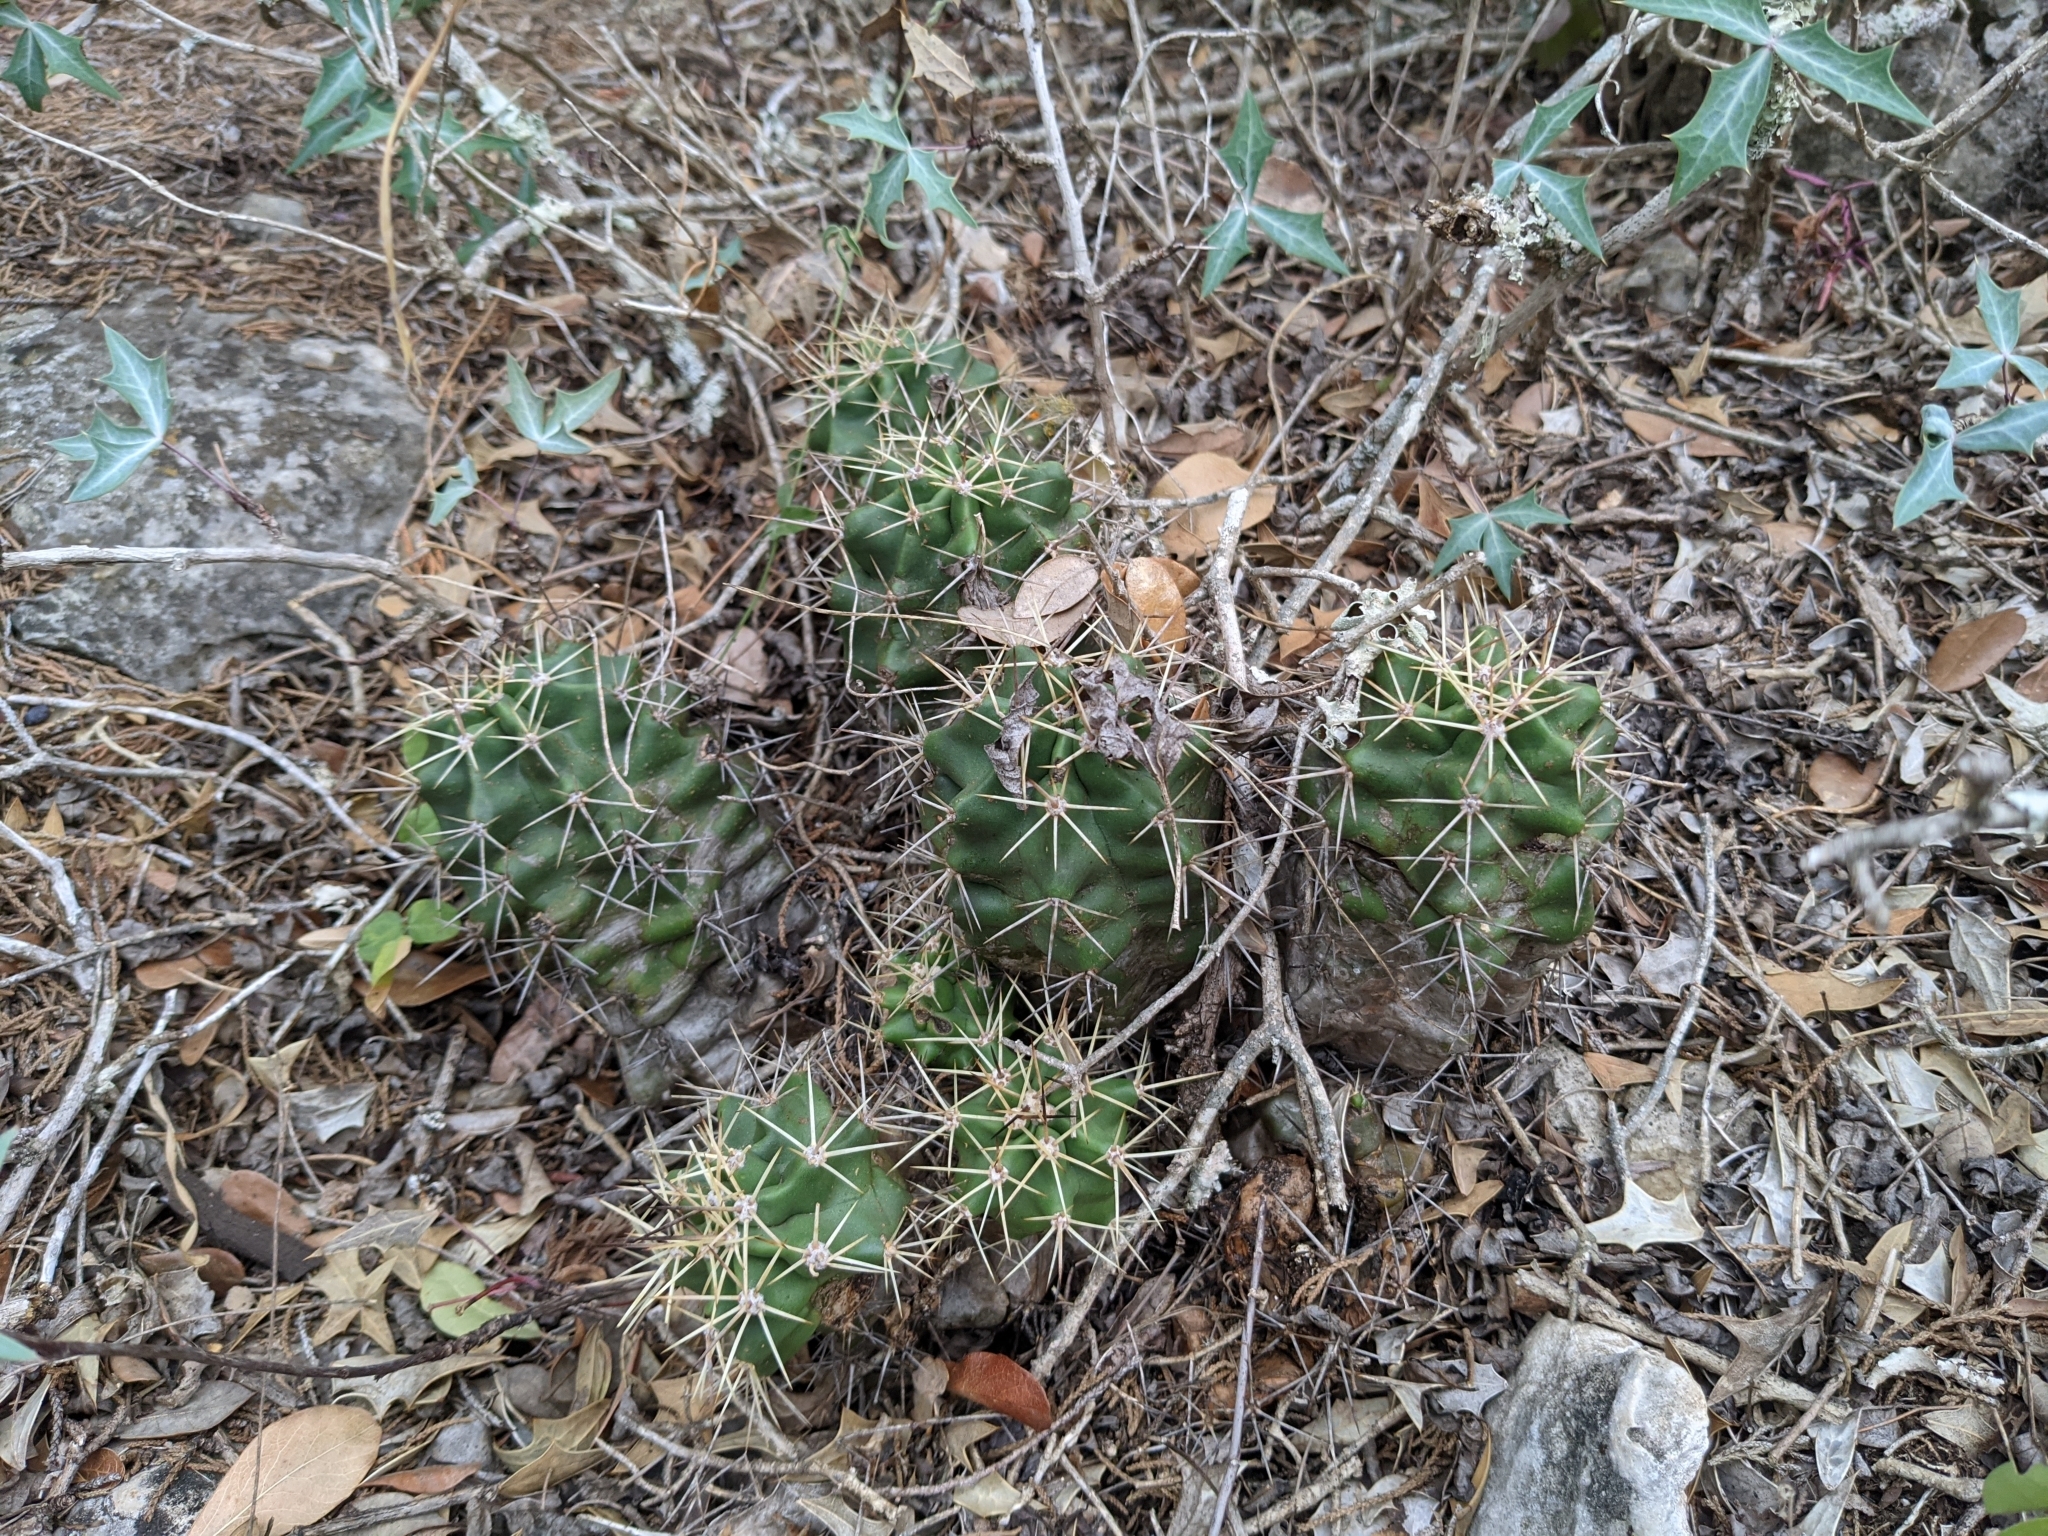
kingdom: Plantae
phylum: Tracheophyta
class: Magnoliopsida
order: Caryophyllales
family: Cactaceae
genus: Echinocereus
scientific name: Echinocereus coccineus
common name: Scarlet hedgehog cactus
